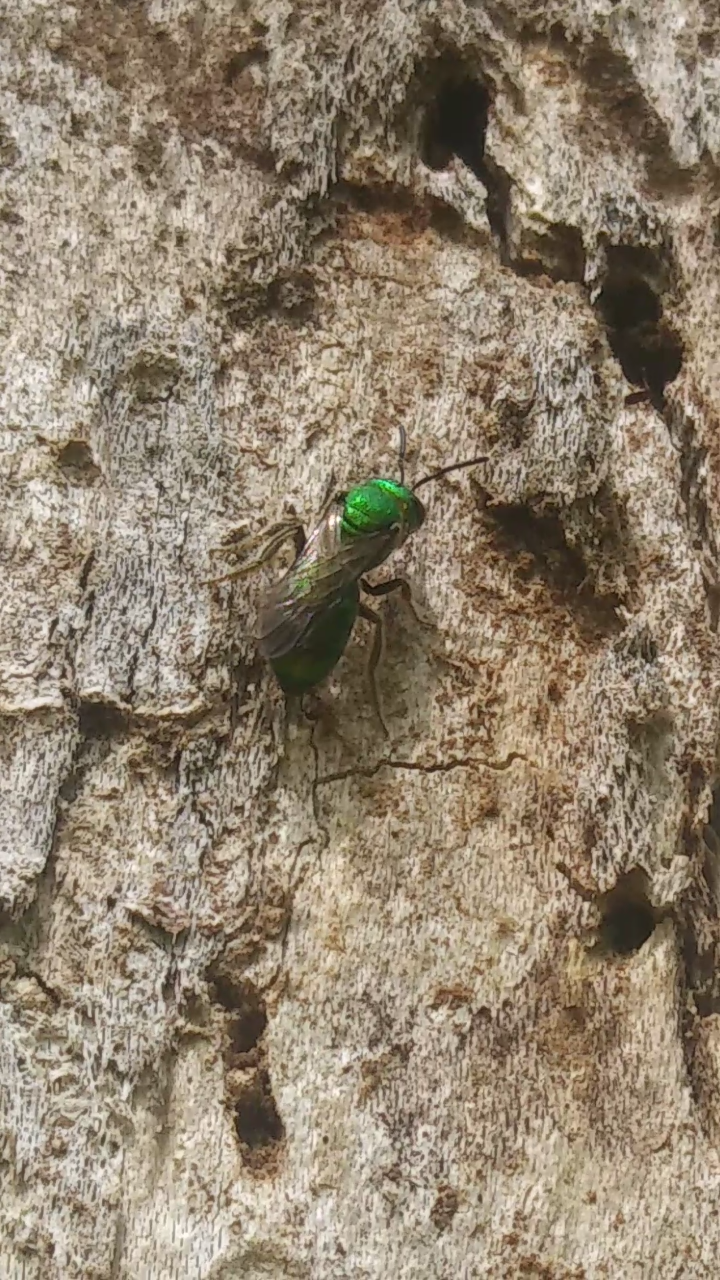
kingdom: Animalia
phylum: Arthropoda
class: Insecta
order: Hymenoptera
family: Halictidae
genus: Augochlora
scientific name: Augochlora pura
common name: Pure green sweat bee
